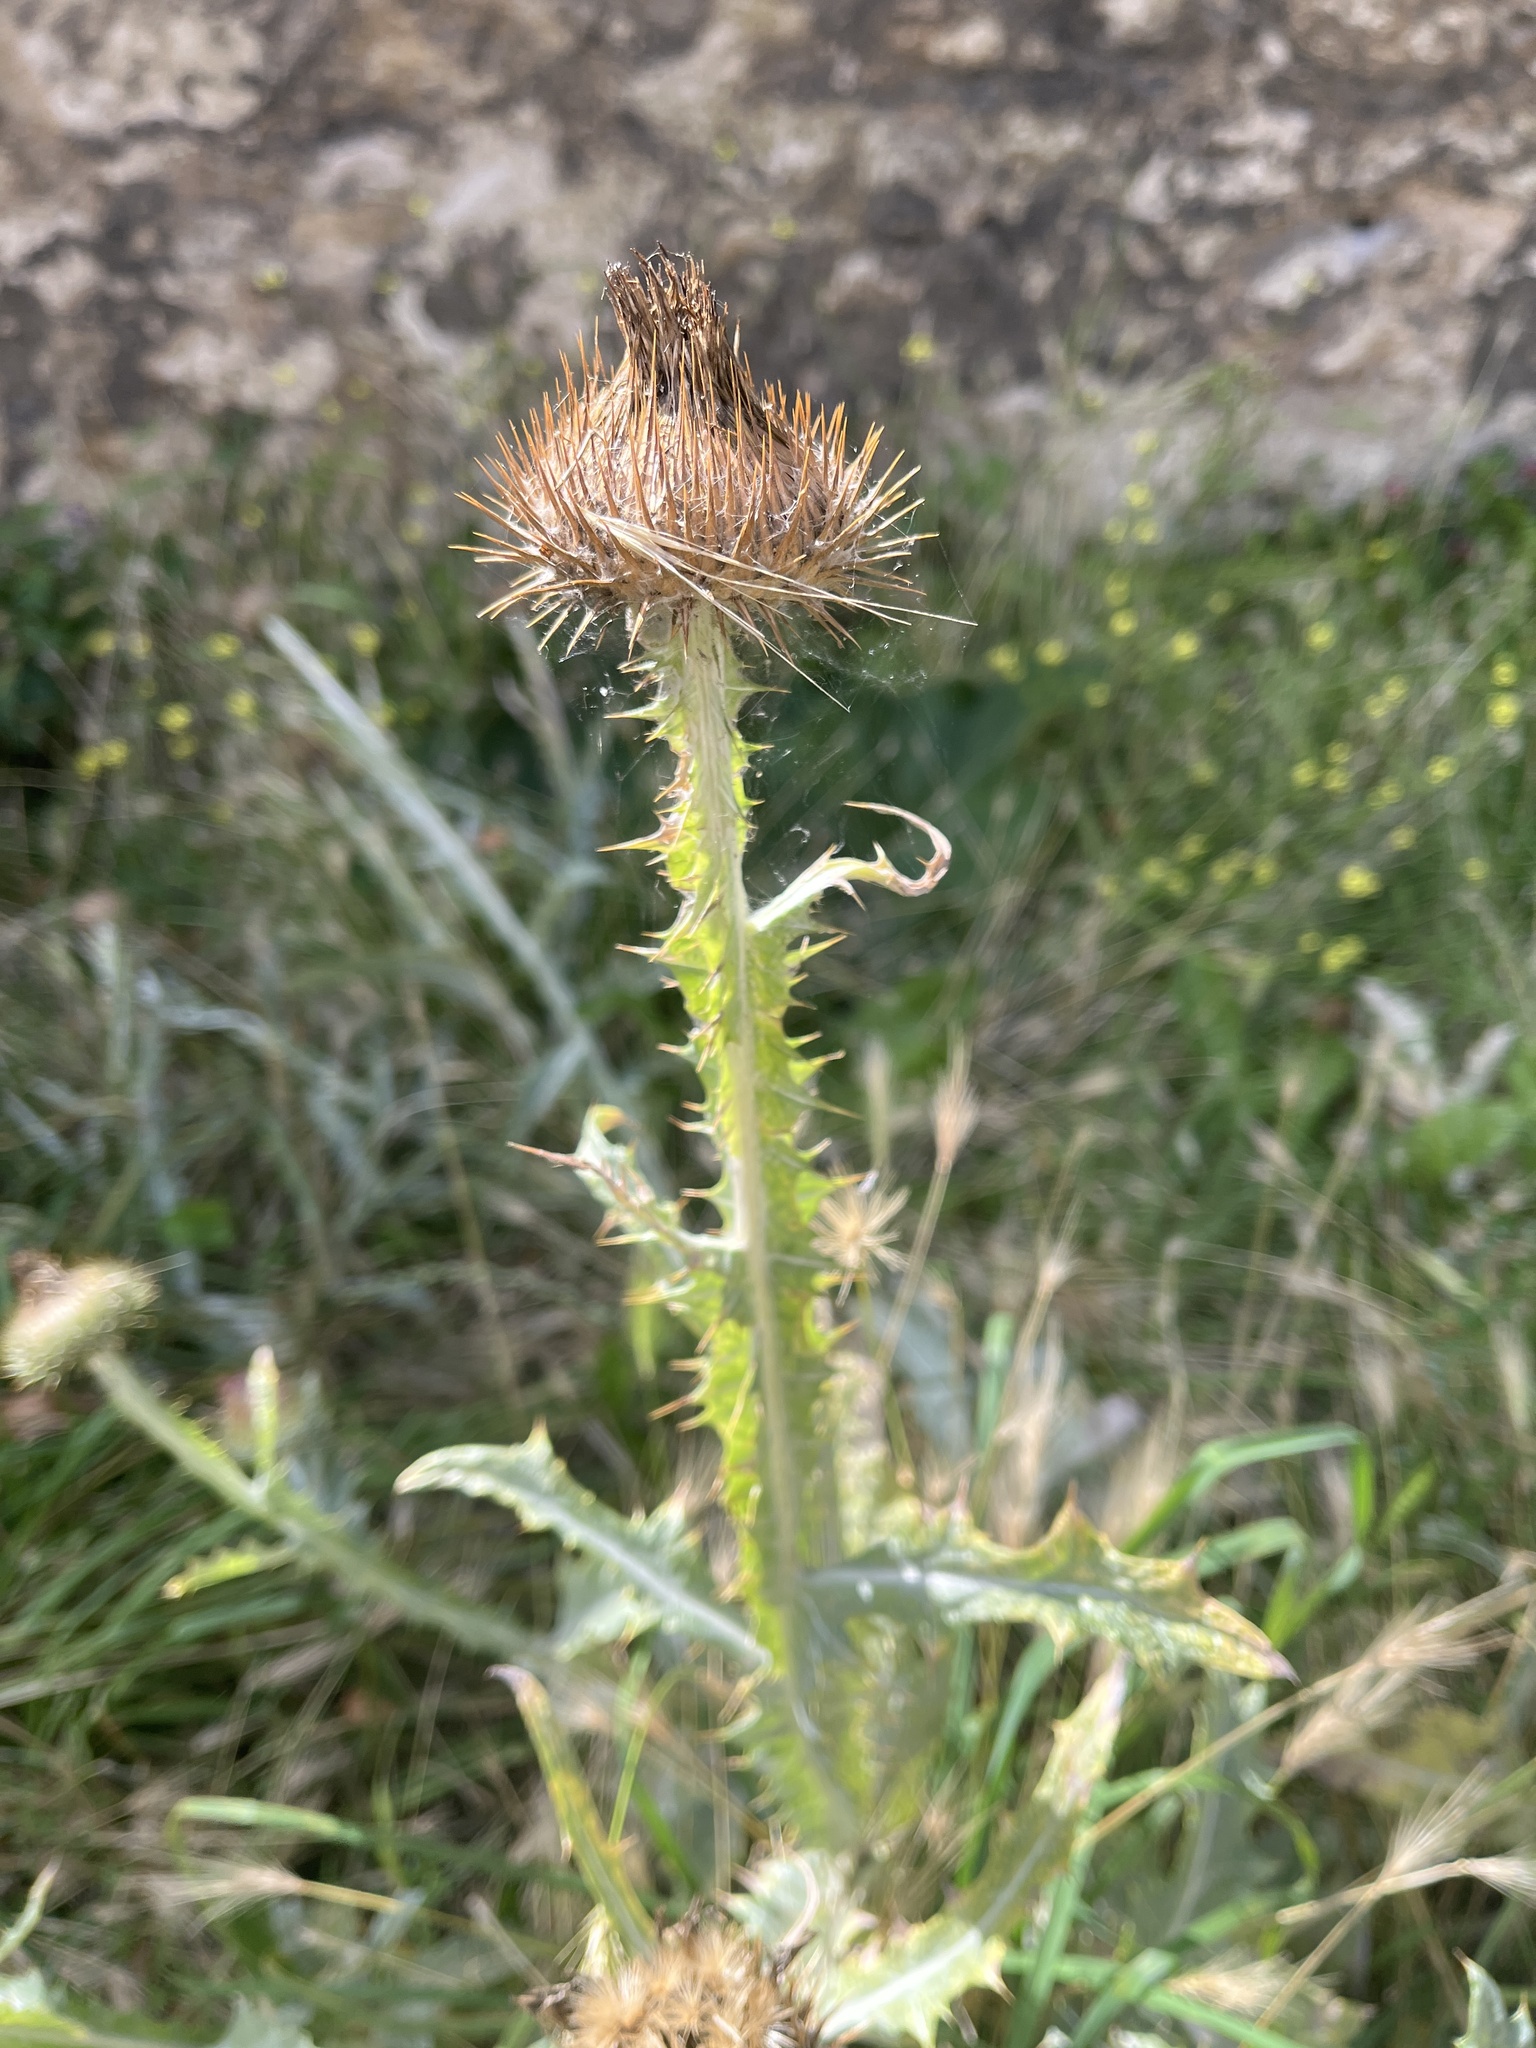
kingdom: Plantae
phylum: Tracheophyta
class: Magnoliopsida
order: Asterales
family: Asteraceae
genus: Onopordum
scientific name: Onopordum acanthium
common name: Scotch thistle
